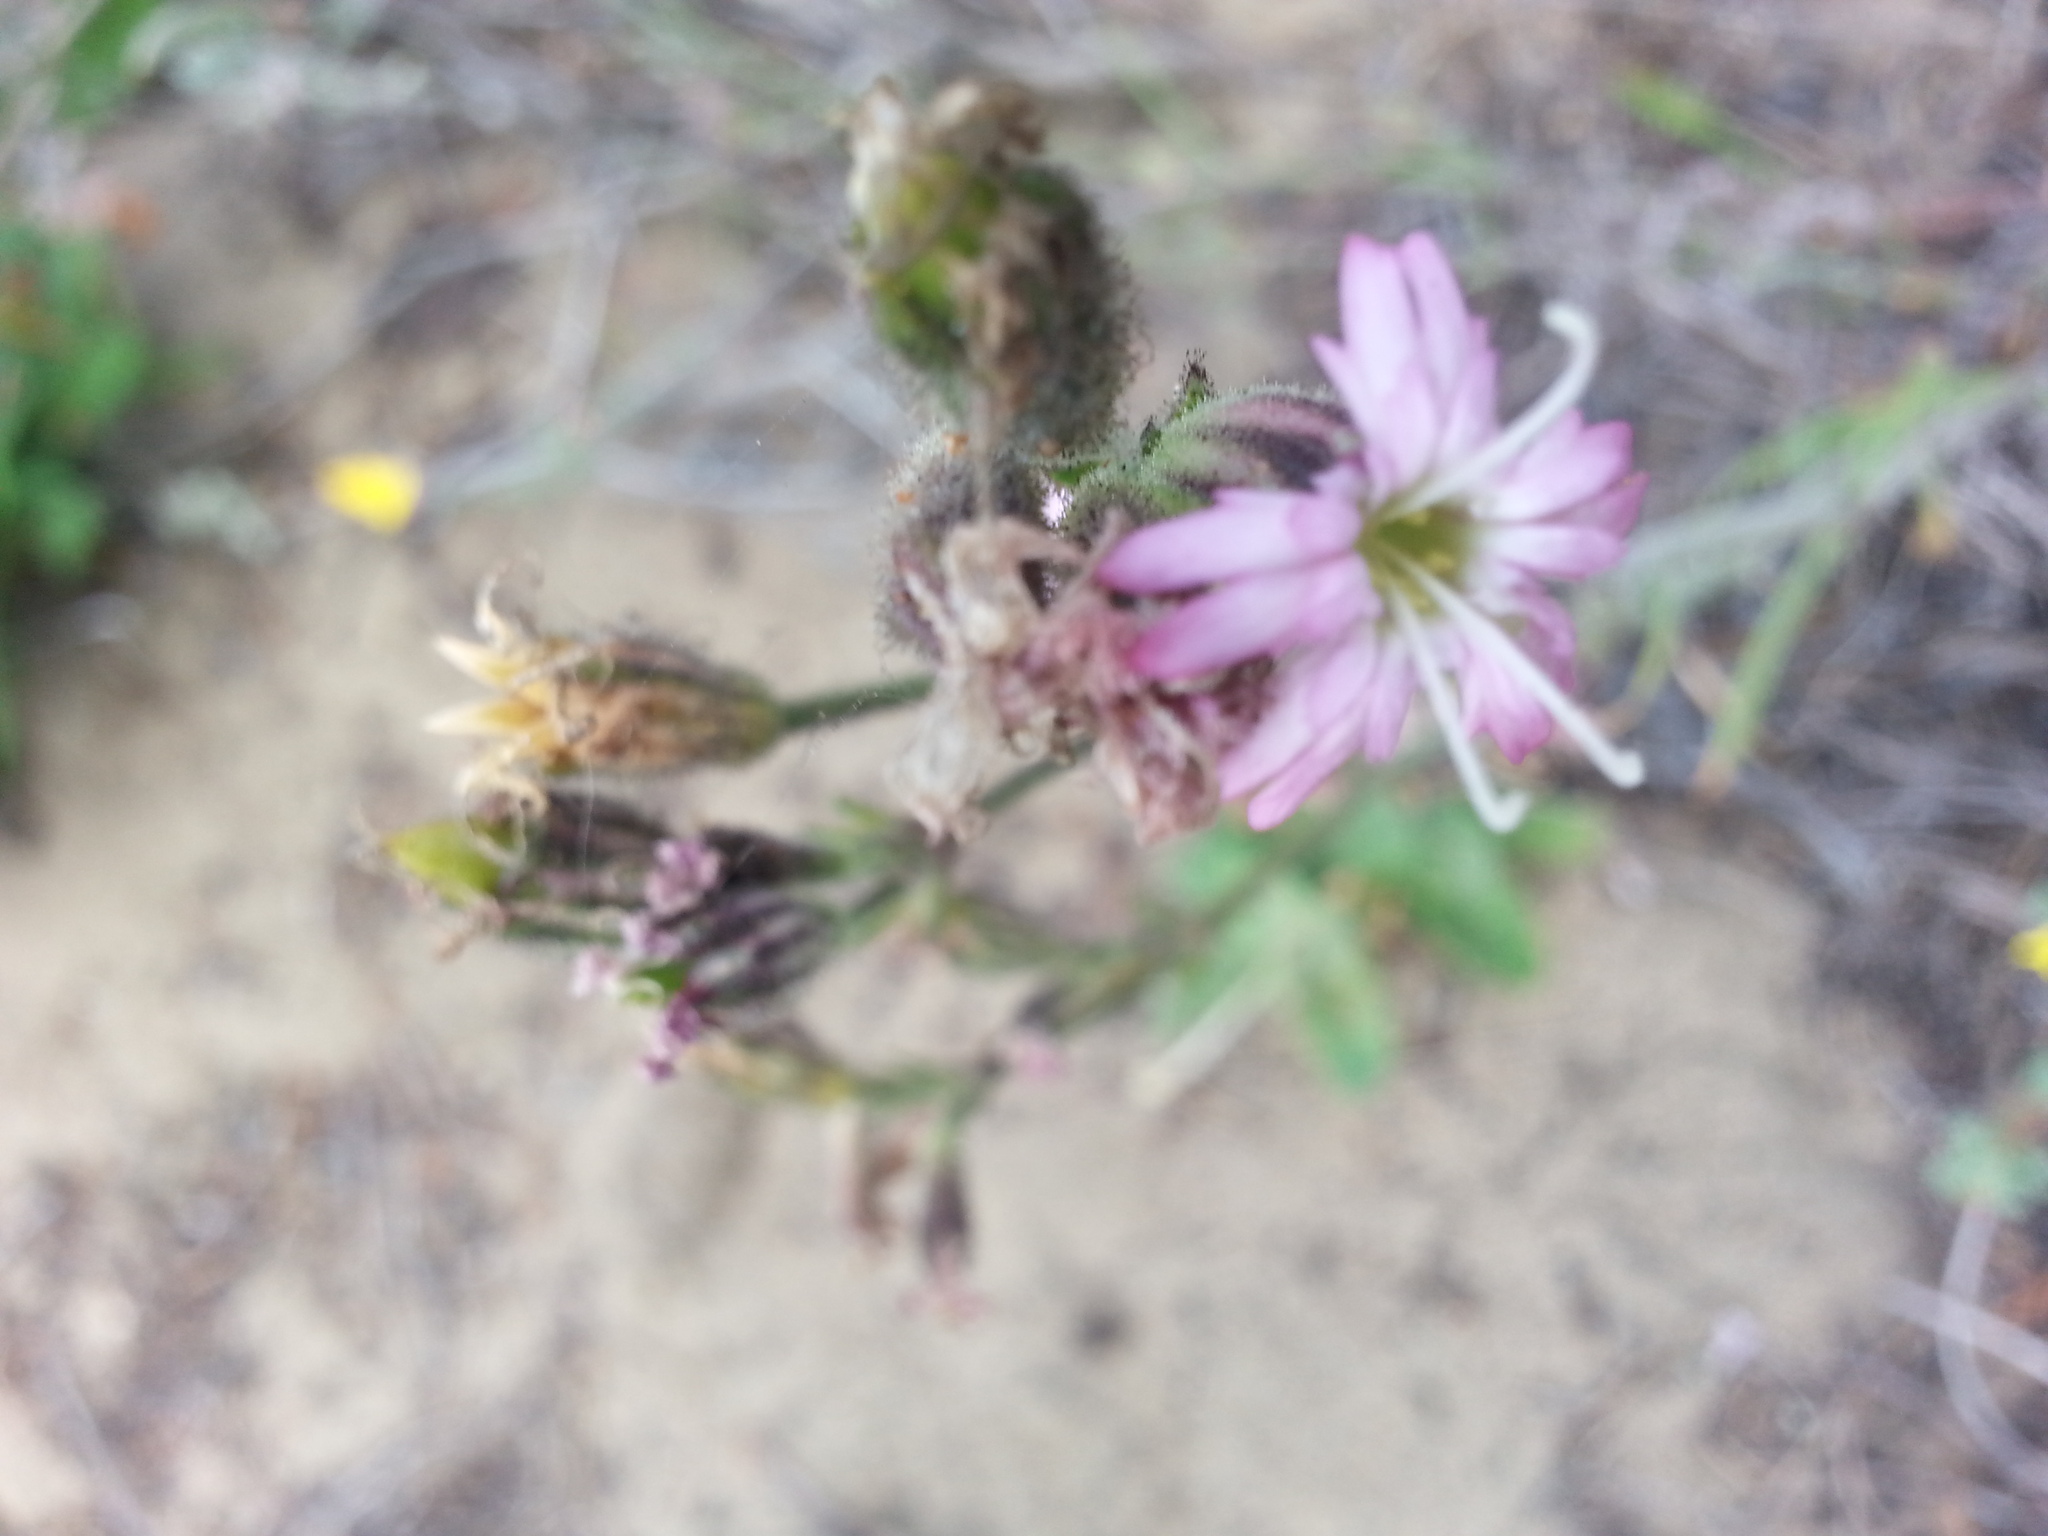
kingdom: Plantae
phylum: Tracheophyta
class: Magnoliopsida
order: Caryophyllales
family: Caryophyllaceae
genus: Silene
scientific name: Silene verecunda
